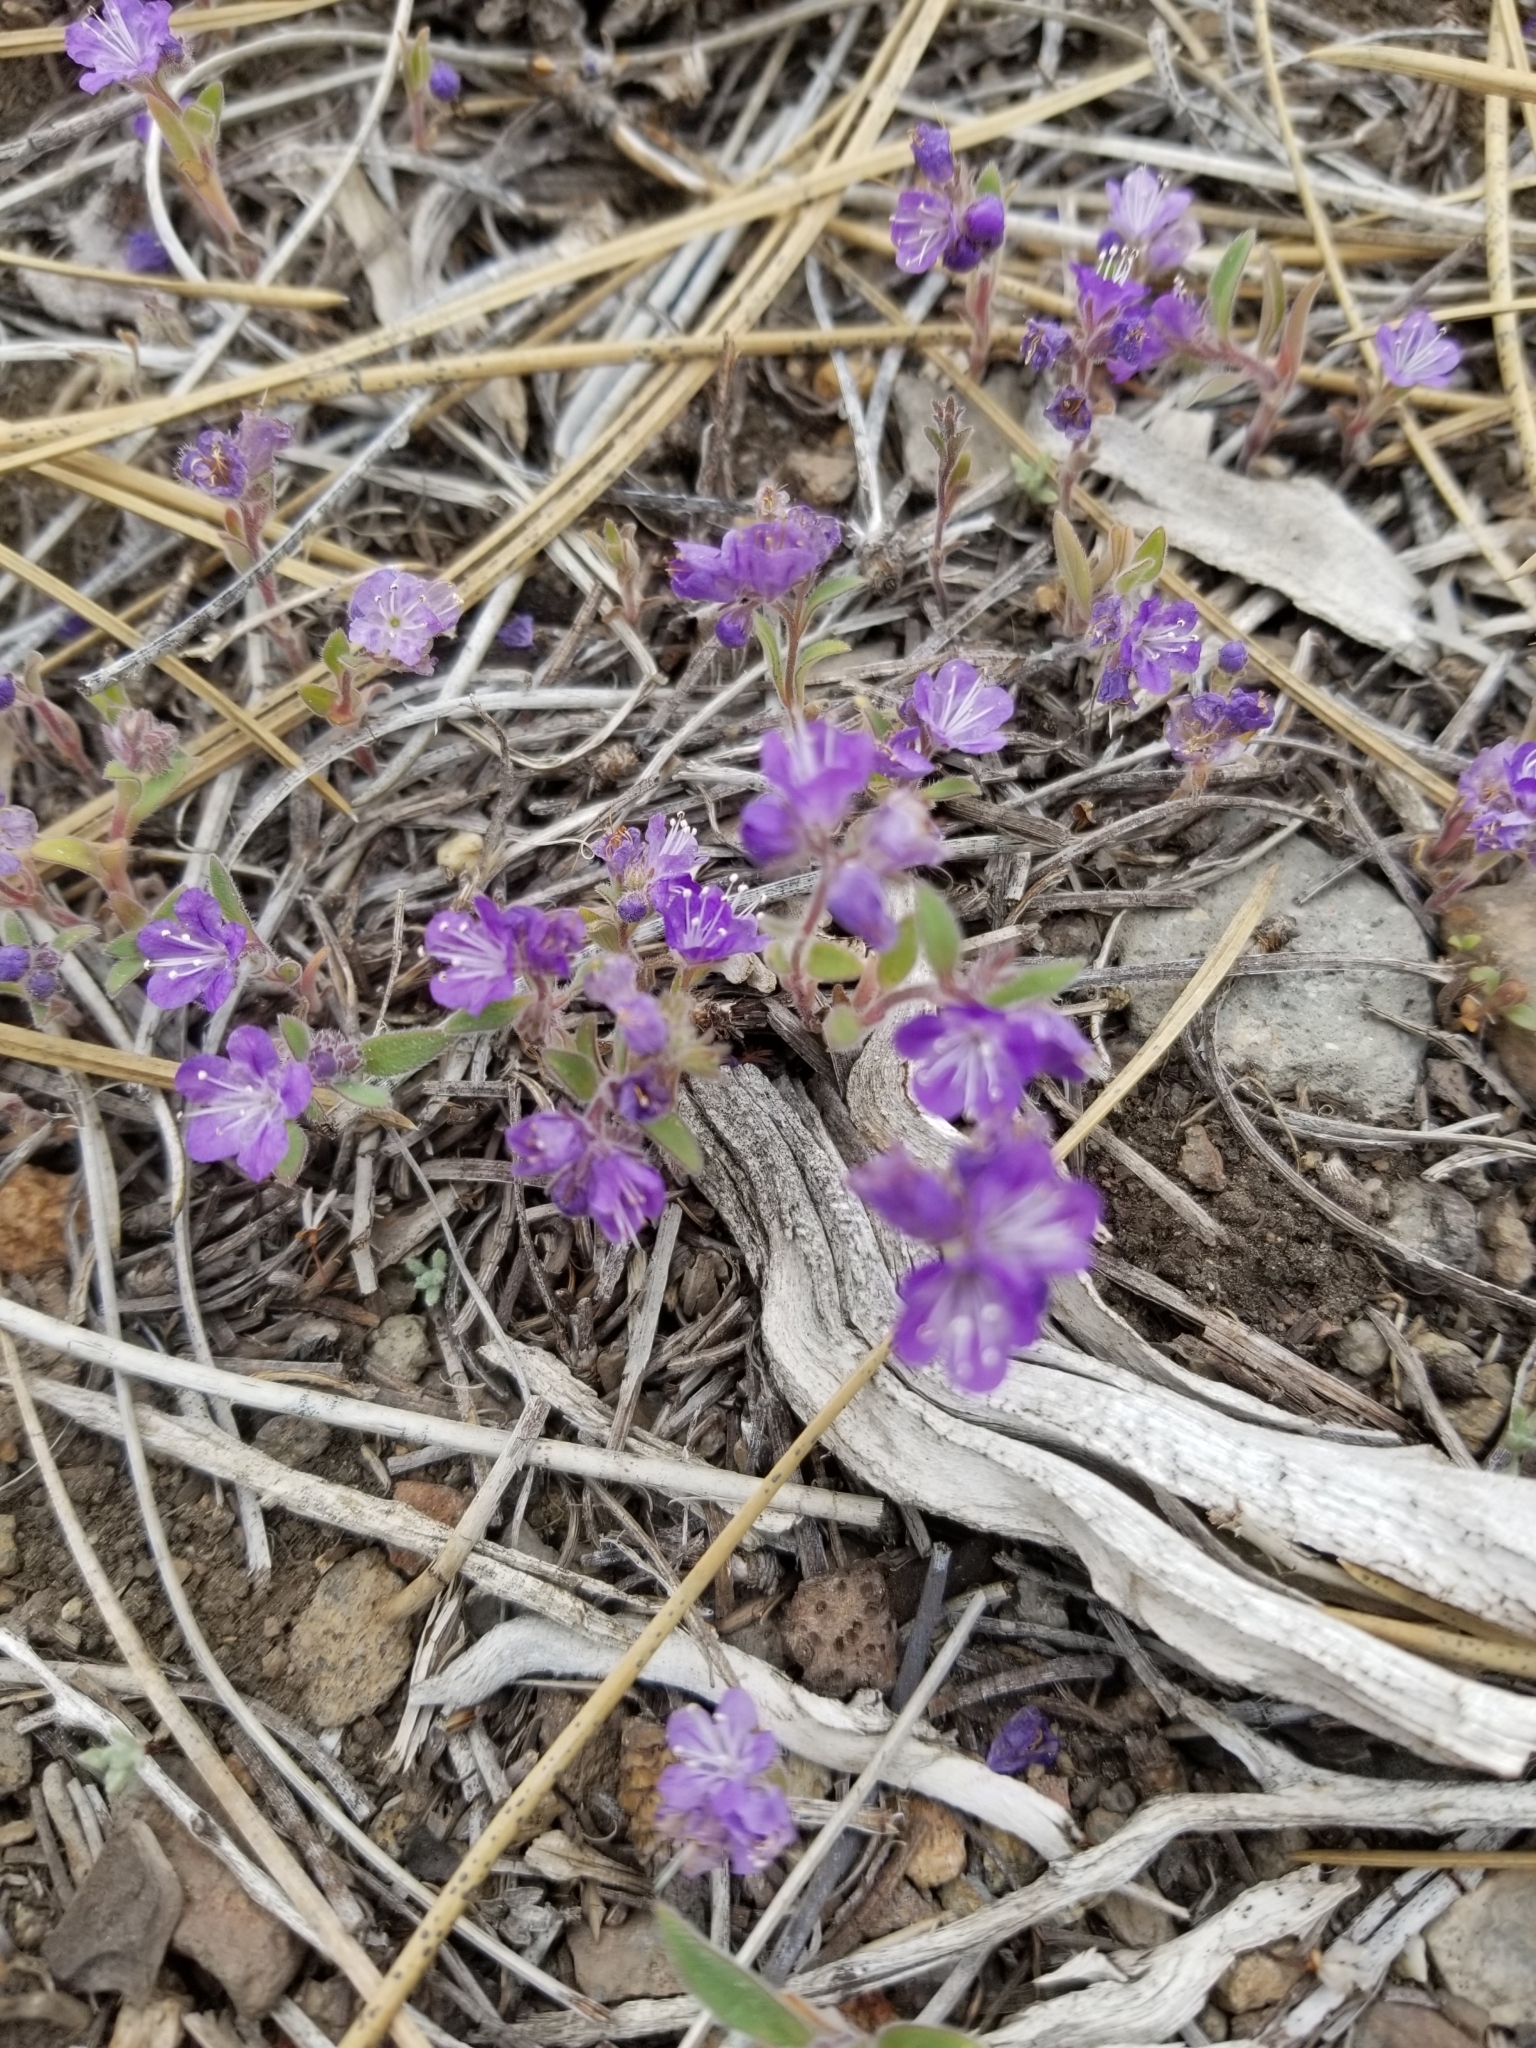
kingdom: Plantae
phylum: Tracheophyta
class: Magnoliopsida
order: Boraginales
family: Hydrophyllaceae
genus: Phacelia
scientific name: Phacelia humilis
